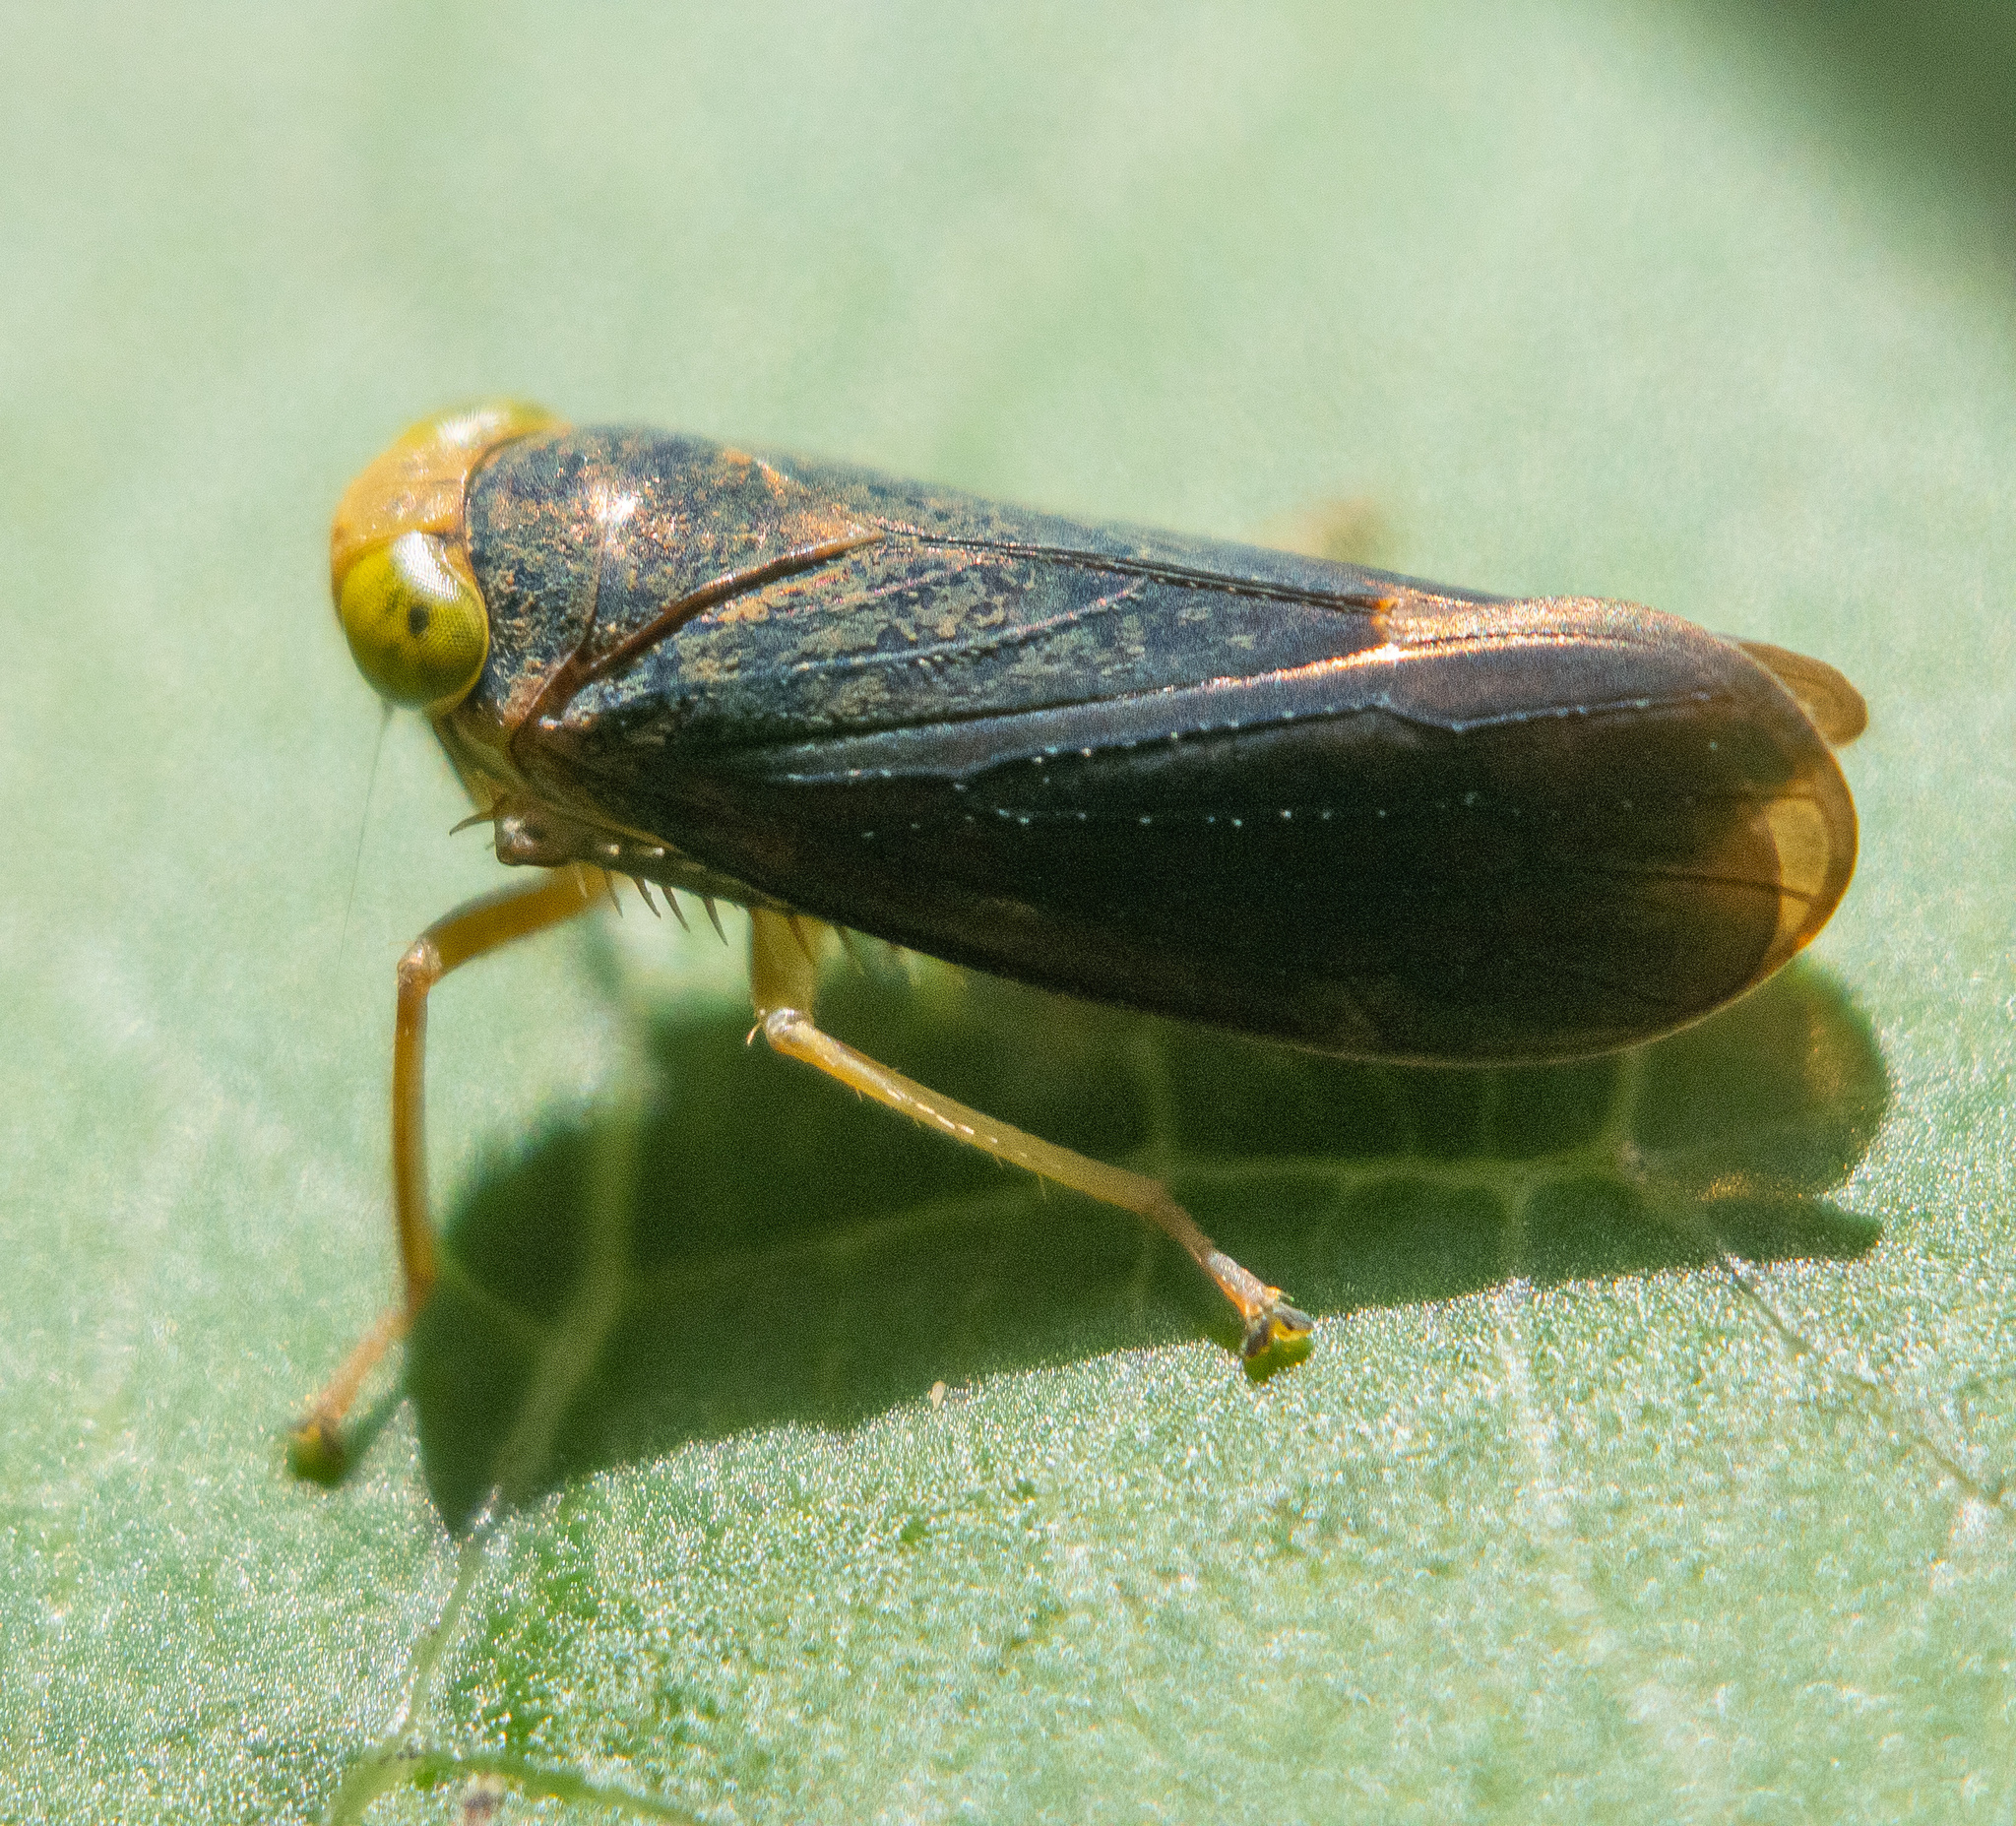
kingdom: Animalia
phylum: Arthropoda
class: Insecta
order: Hemiptera
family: Cicadellidae
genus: Jikradia
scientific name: Jikradia olitoria
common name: Coppery leafhopper
